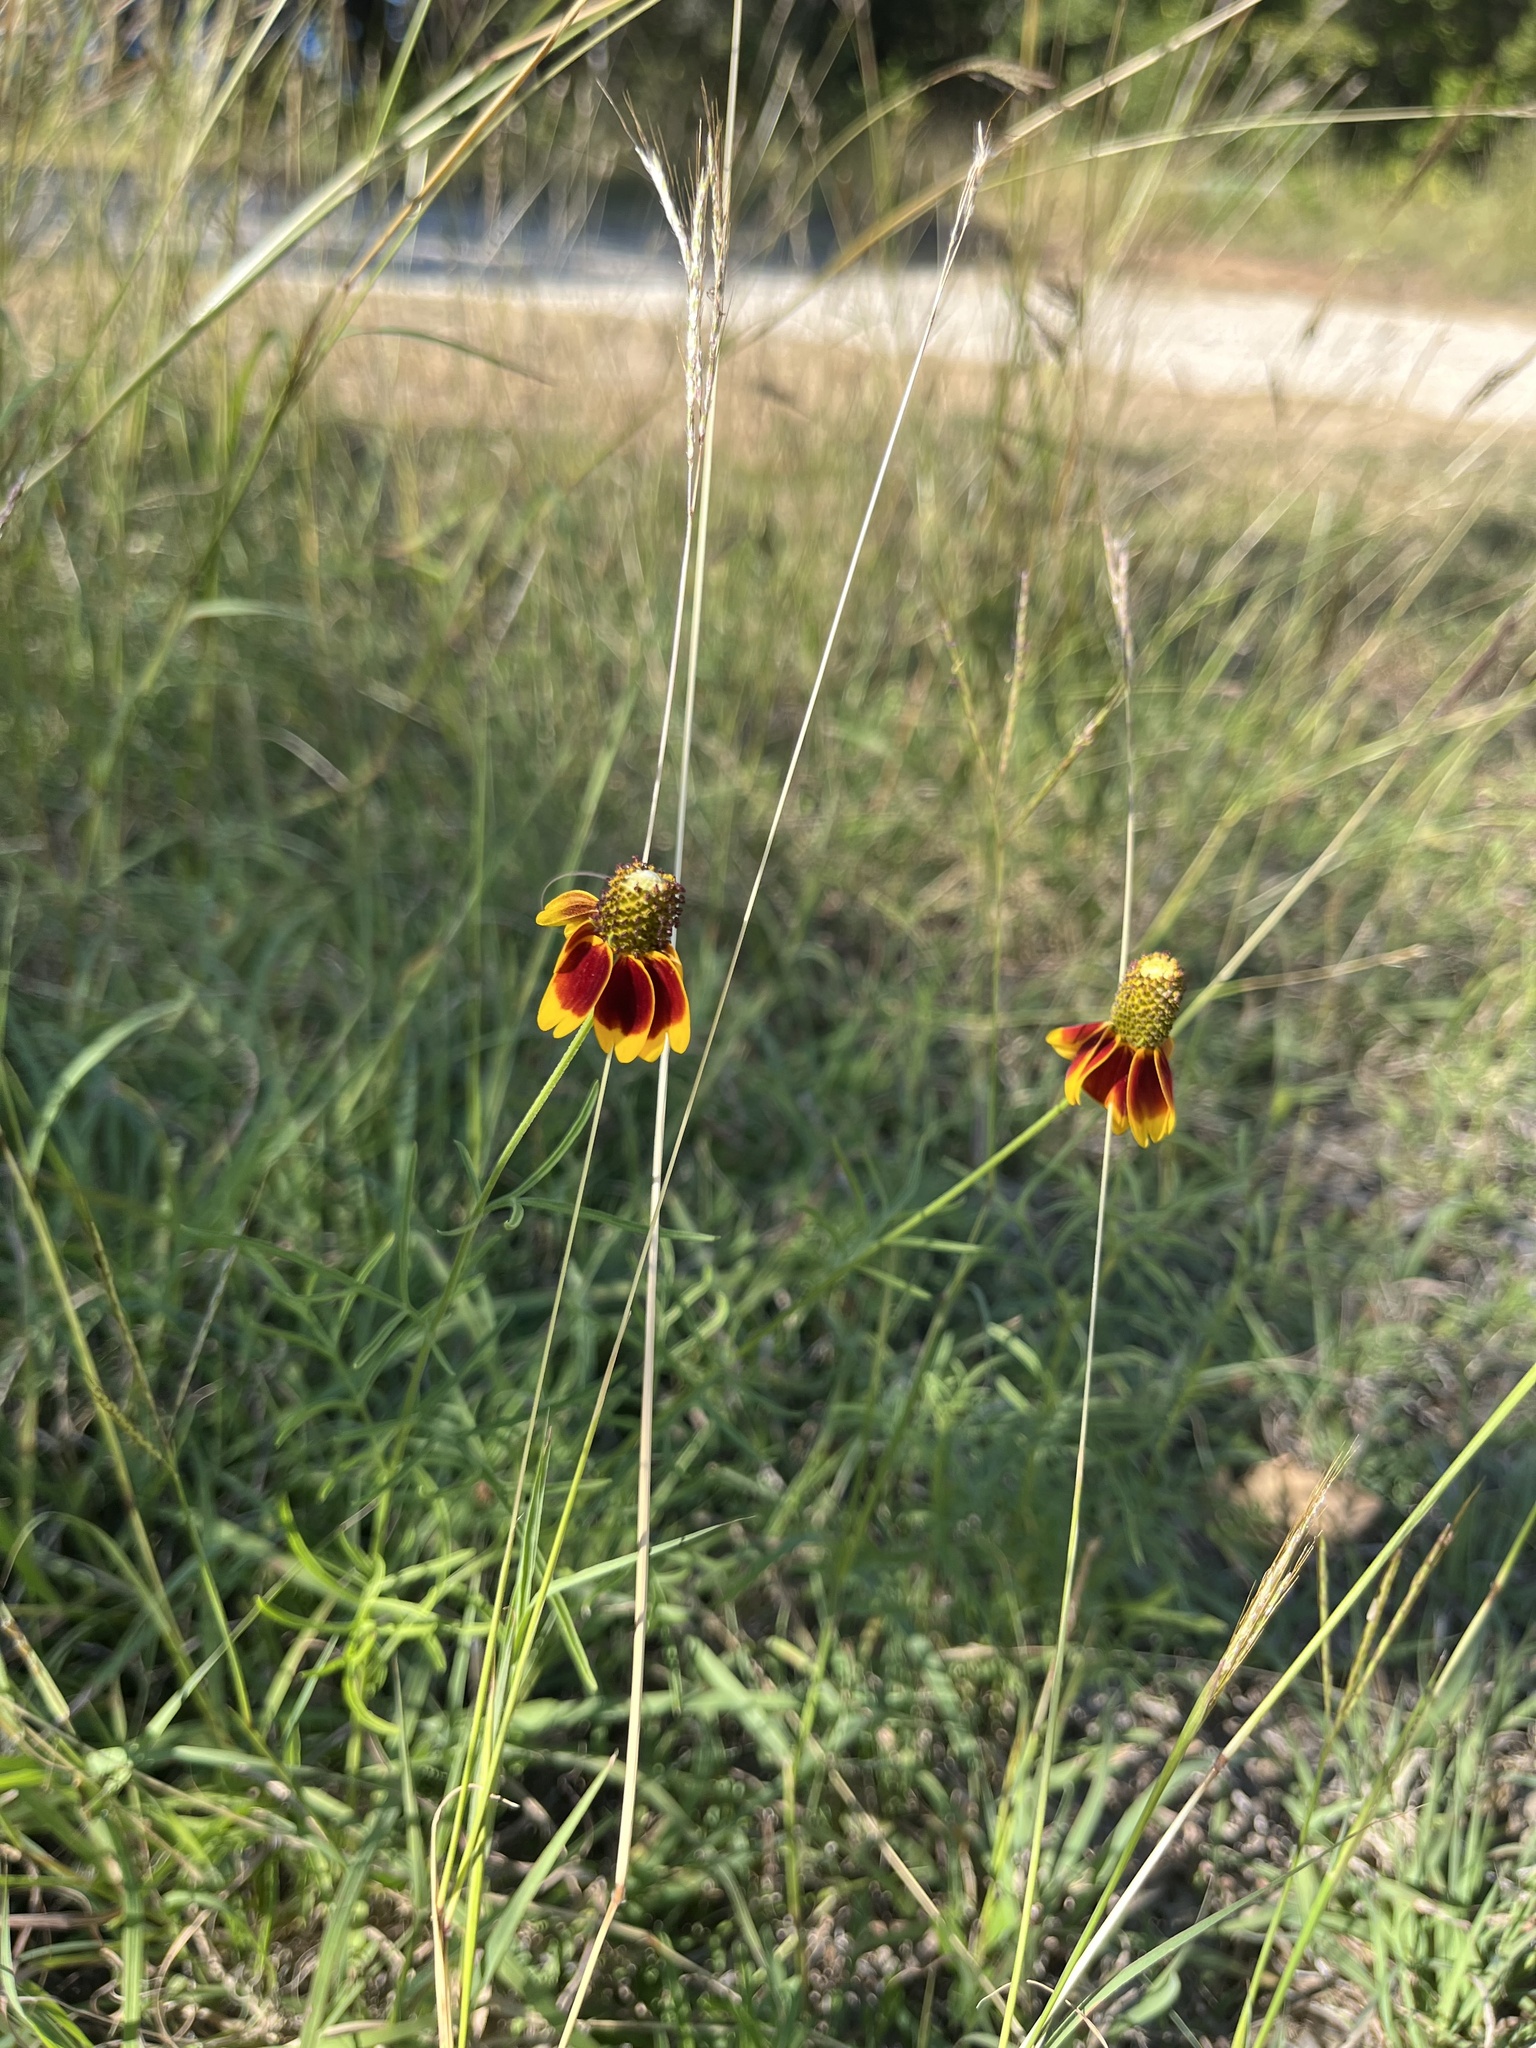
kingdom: Plantae
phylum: Tracheophyta
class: Magnoliopsida
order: Asterales
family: Asteraceae
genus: Ratibida
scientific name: Ratibida columnifera
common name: Prairie coneflower
